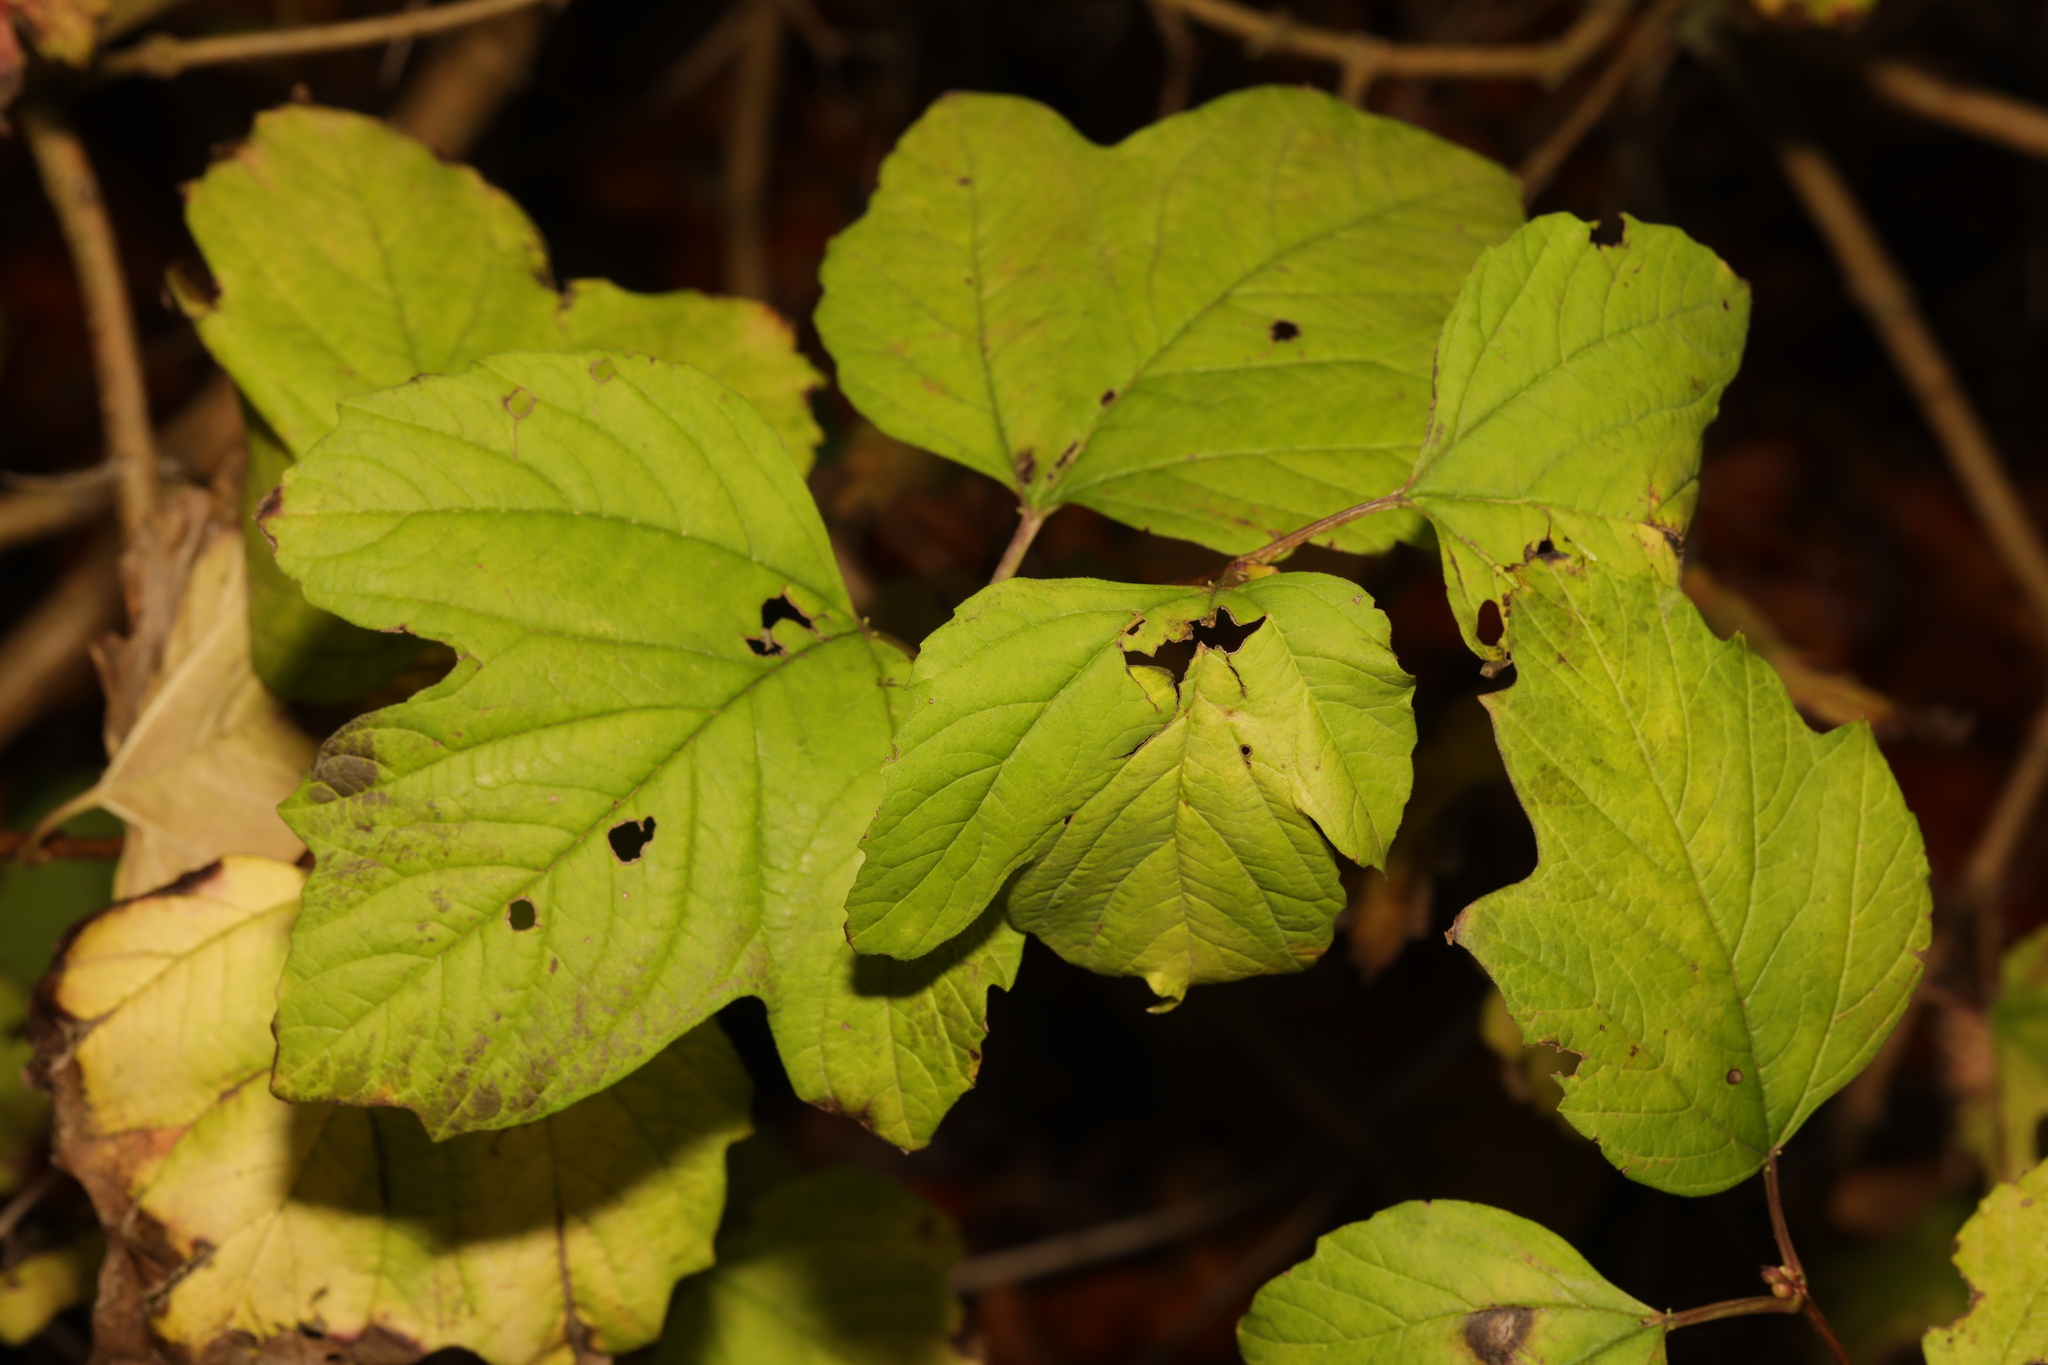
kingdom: Plantae
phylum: Tracheophyta
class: Magnoliopsida
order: Dipsacales
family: Viburnaceae
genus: Viburnum
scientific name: Viburnum opulus
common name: Guelder-rose
